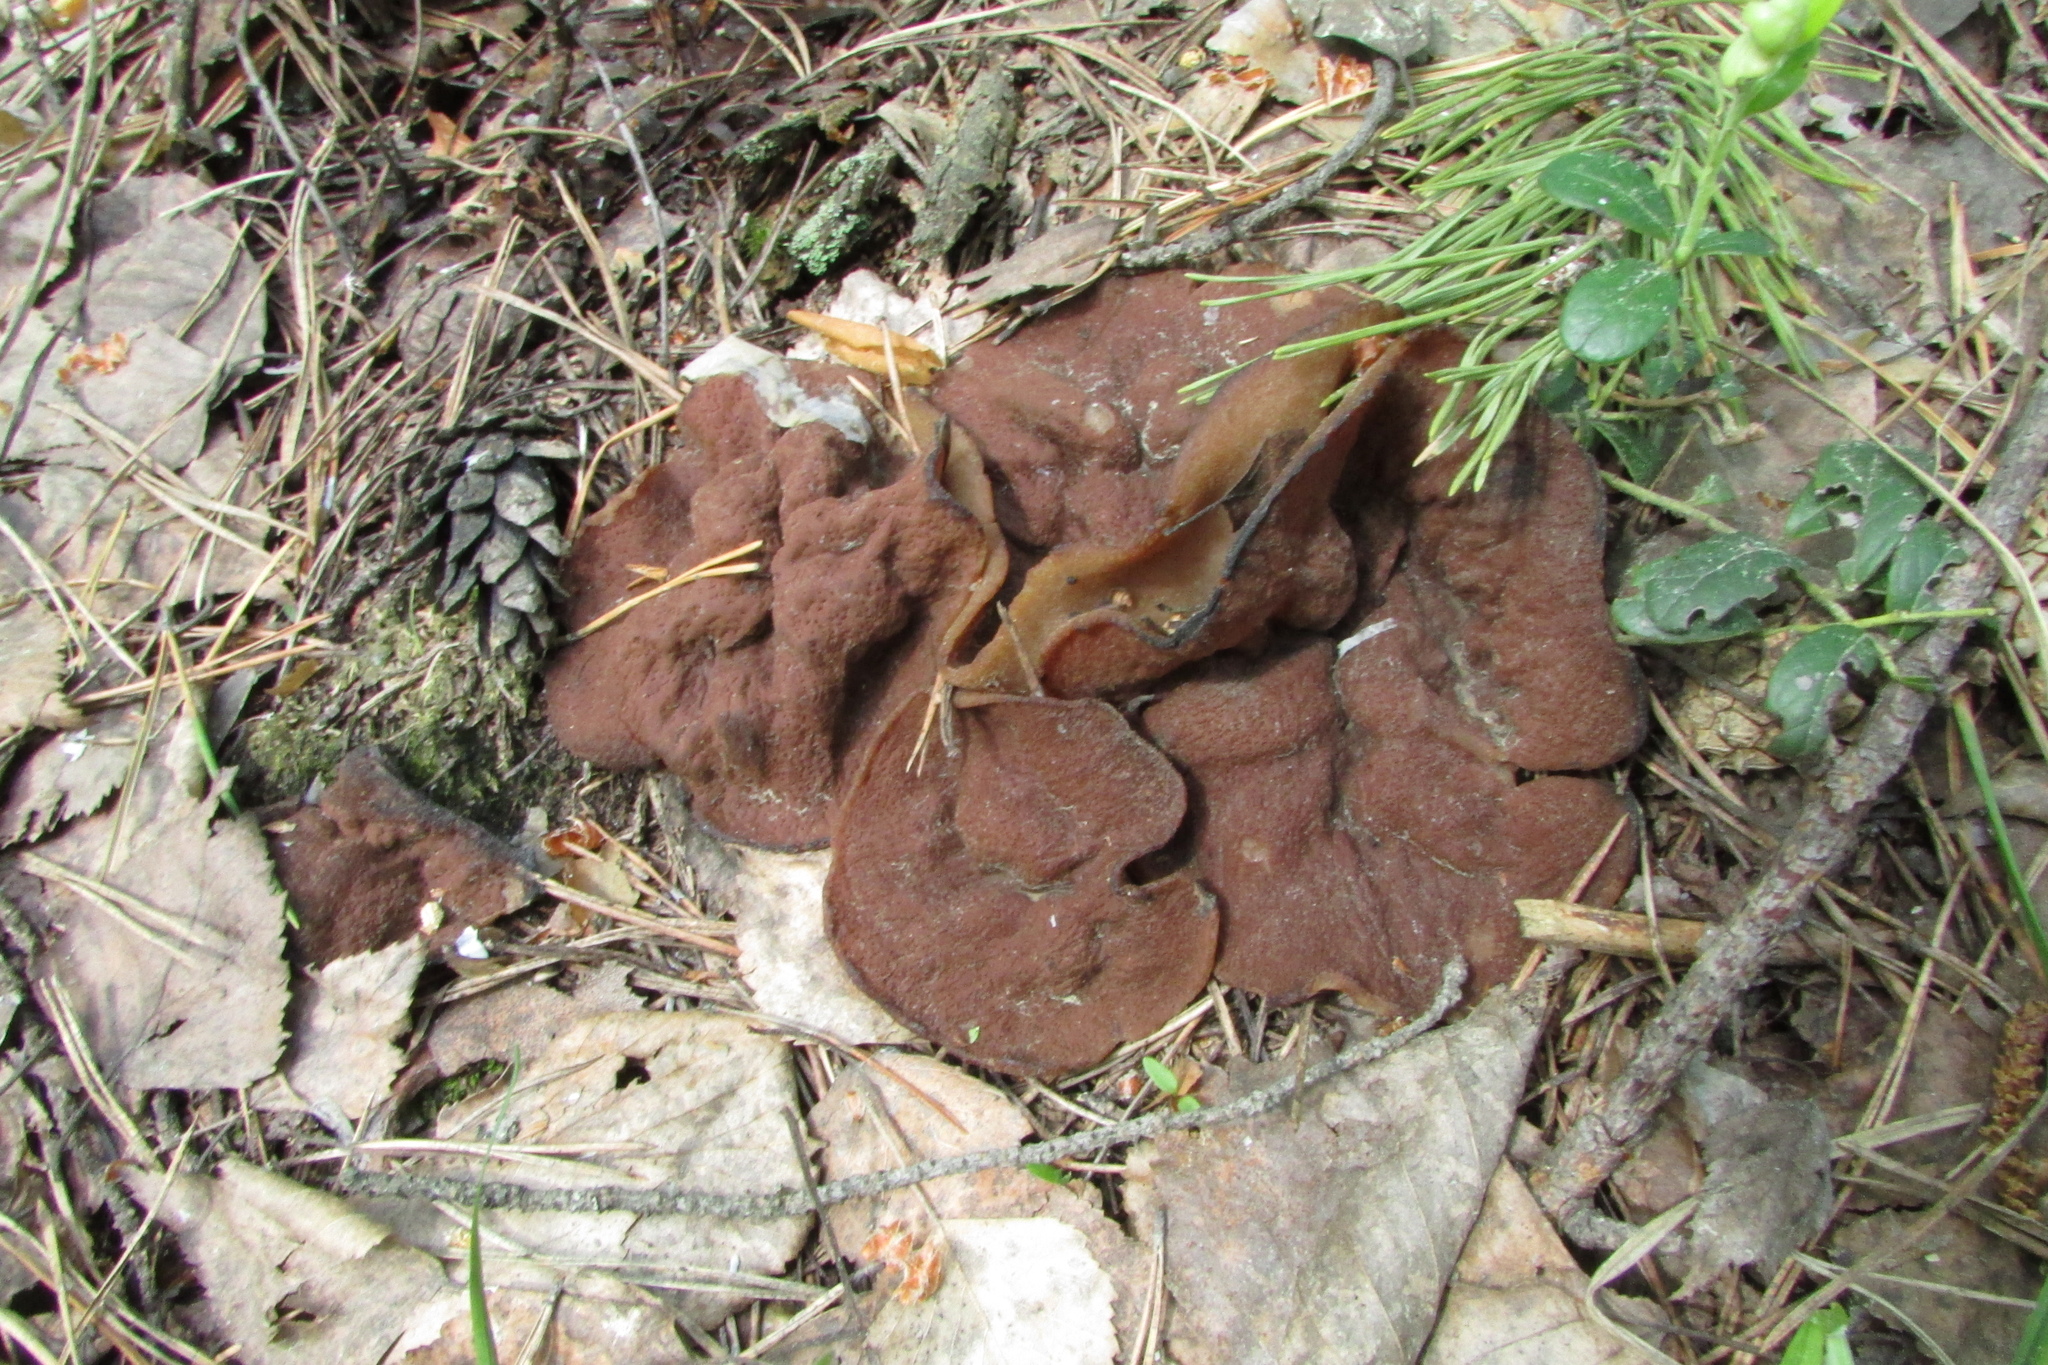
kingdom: Fungi
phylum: Ascomycota
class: Pezizomycetes
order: Pezizales
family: Discinaceae
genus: Discina
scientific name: Discina ancilis
